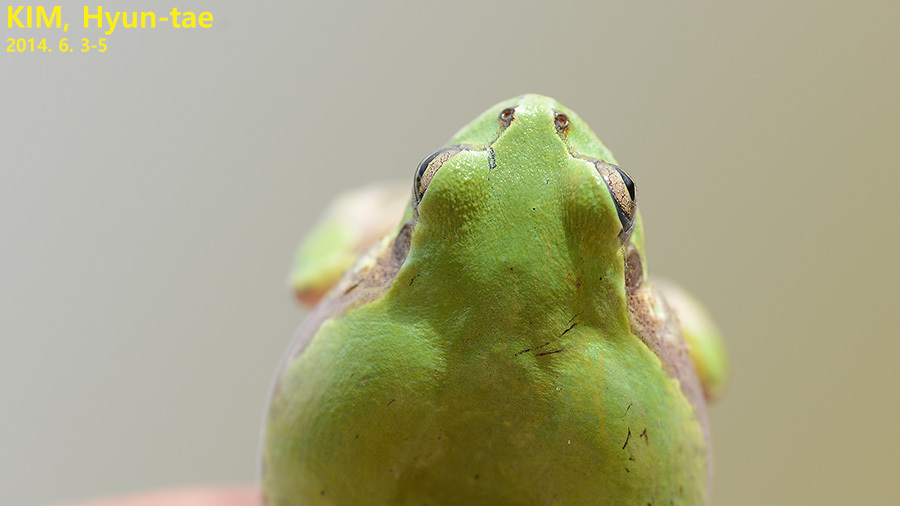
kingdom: Animalia
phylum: Chordata
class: Amphibia
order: Anura
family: Hylidae
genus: Dryophytes
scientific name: Dryophytes japonicus
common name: Japanese treefrog
